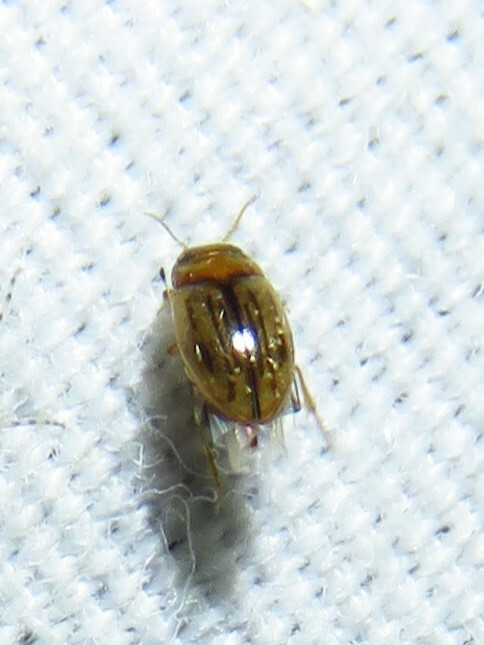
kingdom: Animalia
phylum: Arthropoda
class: Insecta
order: Coleoptera
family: Dytiscidae
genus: Neobidessus
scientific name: Neobidessus
